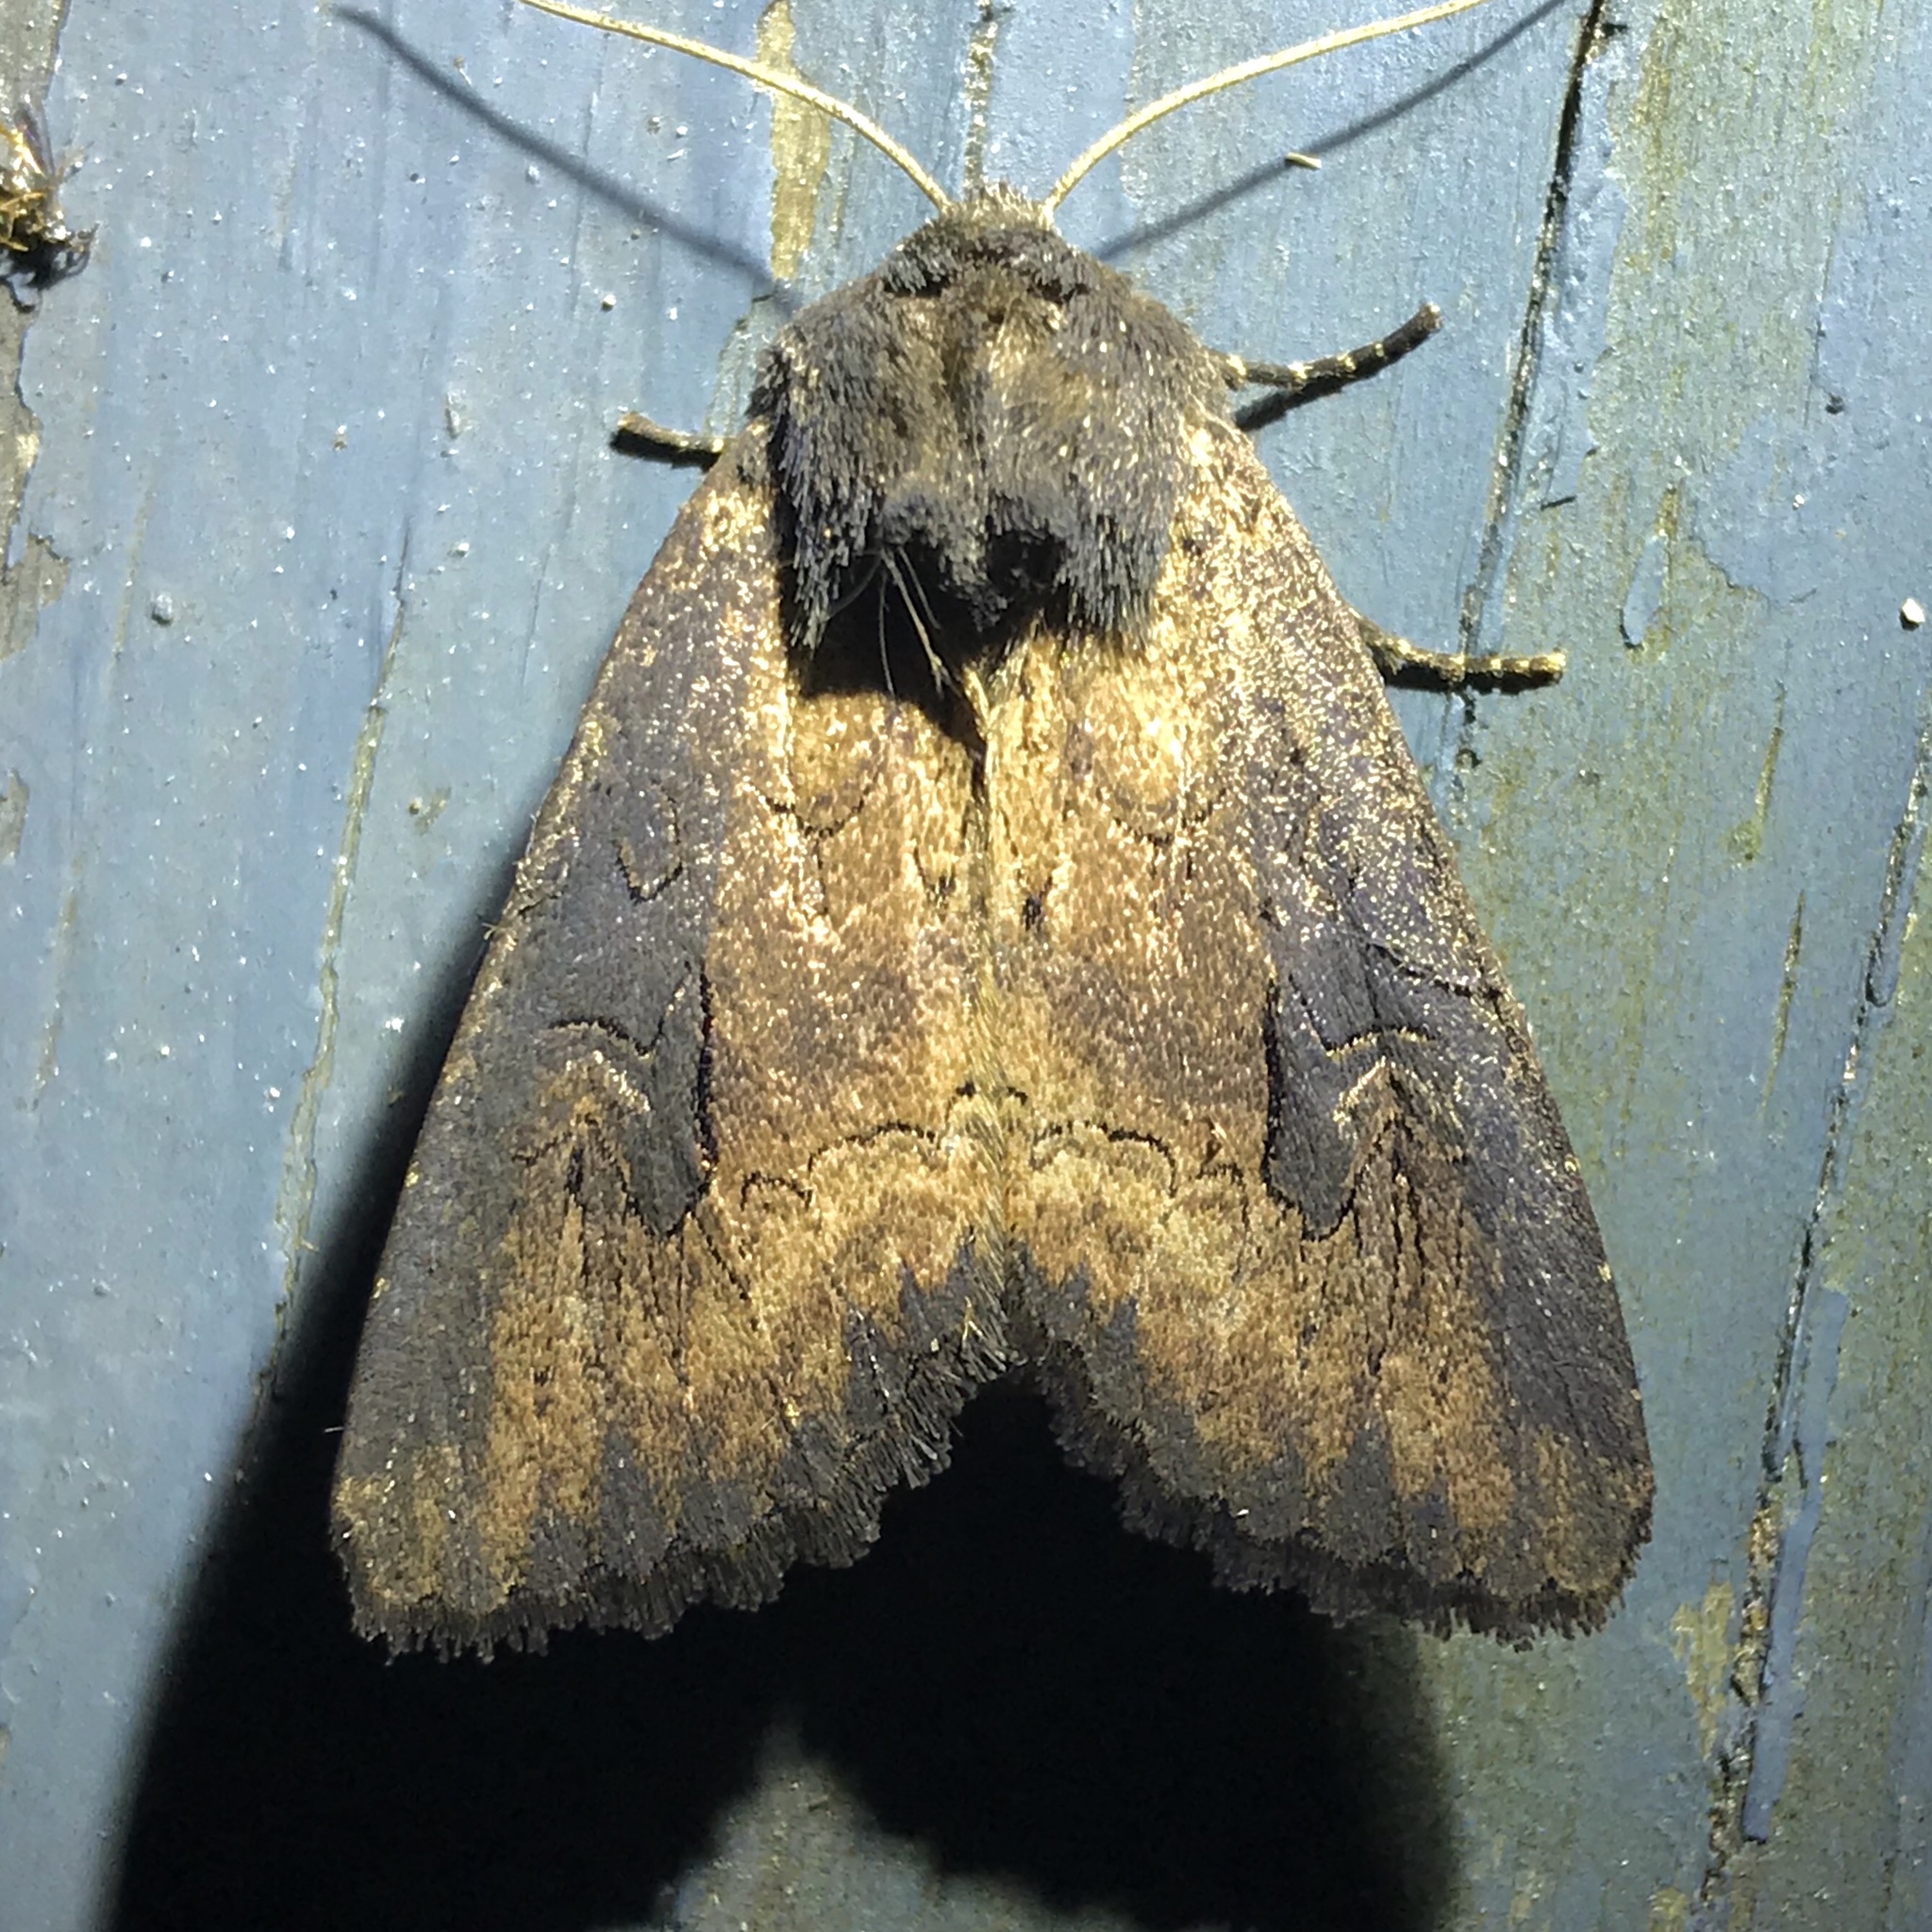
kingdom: Animalia
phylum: Arthropoda
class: Insecta
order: Lepidoptera
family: Noctuidae
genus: Macronoctua
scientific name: Macronoctua onusta
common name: Iris borer
